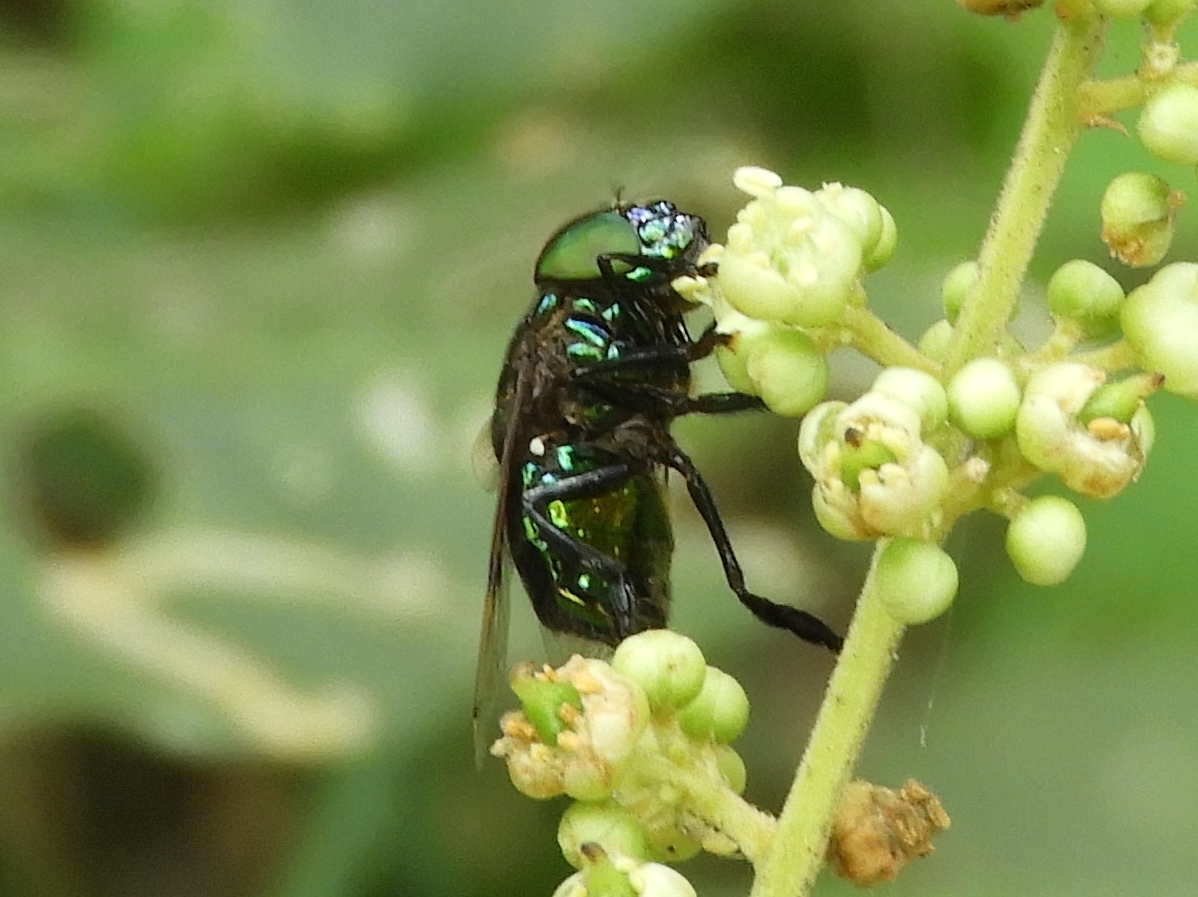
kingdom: Animalia
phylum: Arthropoda
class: Insecta
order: Diptera
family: Syrphidae
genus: Ornidia
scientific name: Ornidia obesa
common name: Syrphid fly
